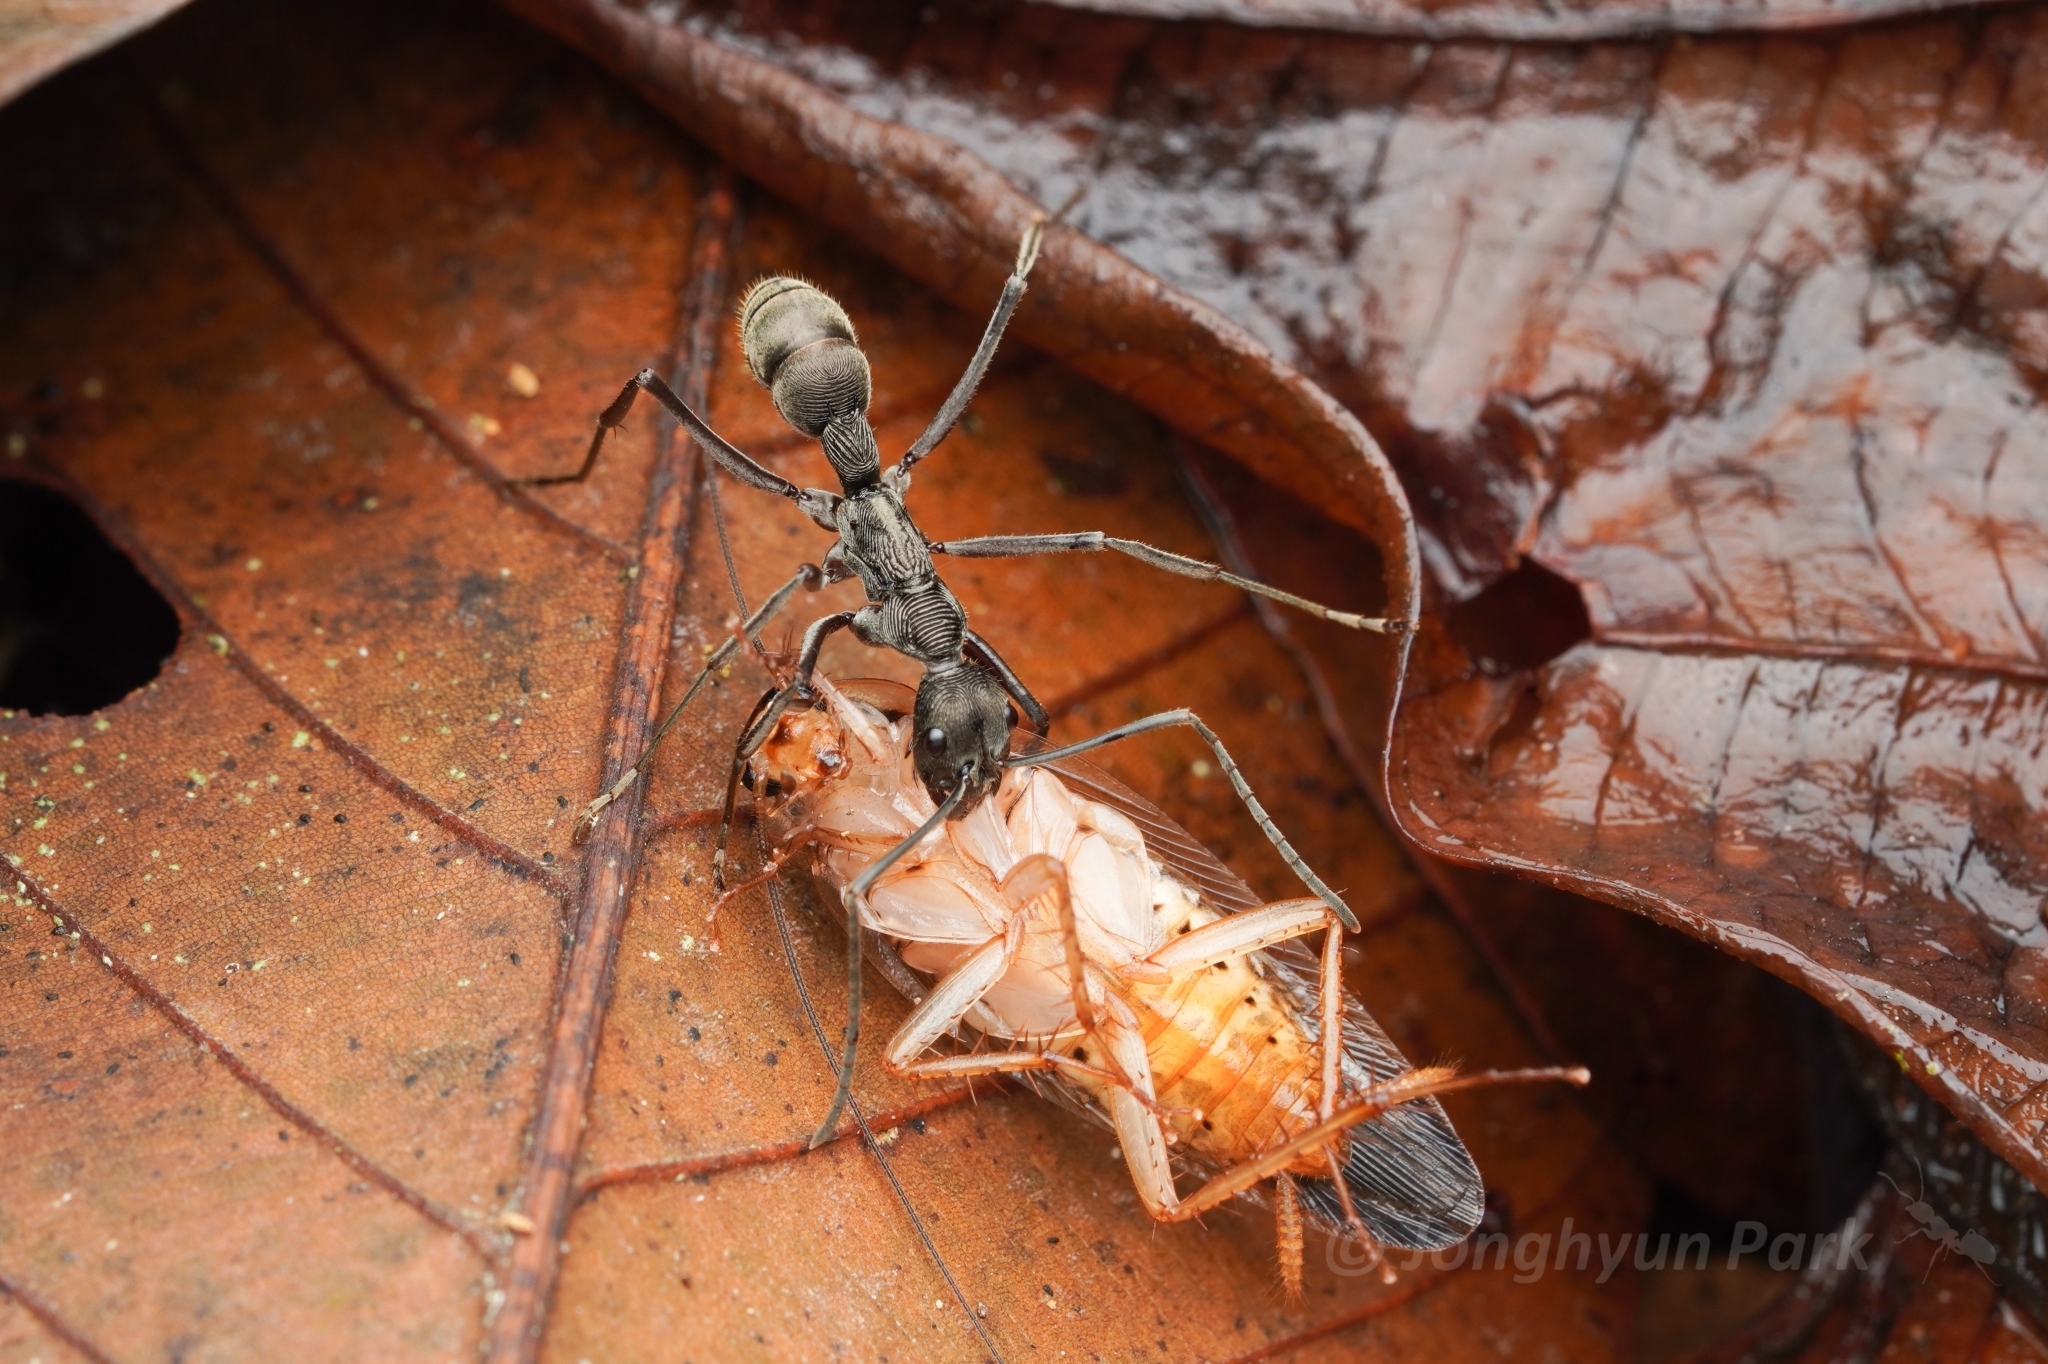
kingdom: Animalia
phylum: Arthropoda
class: Insecta
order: Hymenoptera
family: Formicidae
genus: Diacamma
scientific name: Diacamma intricatum
